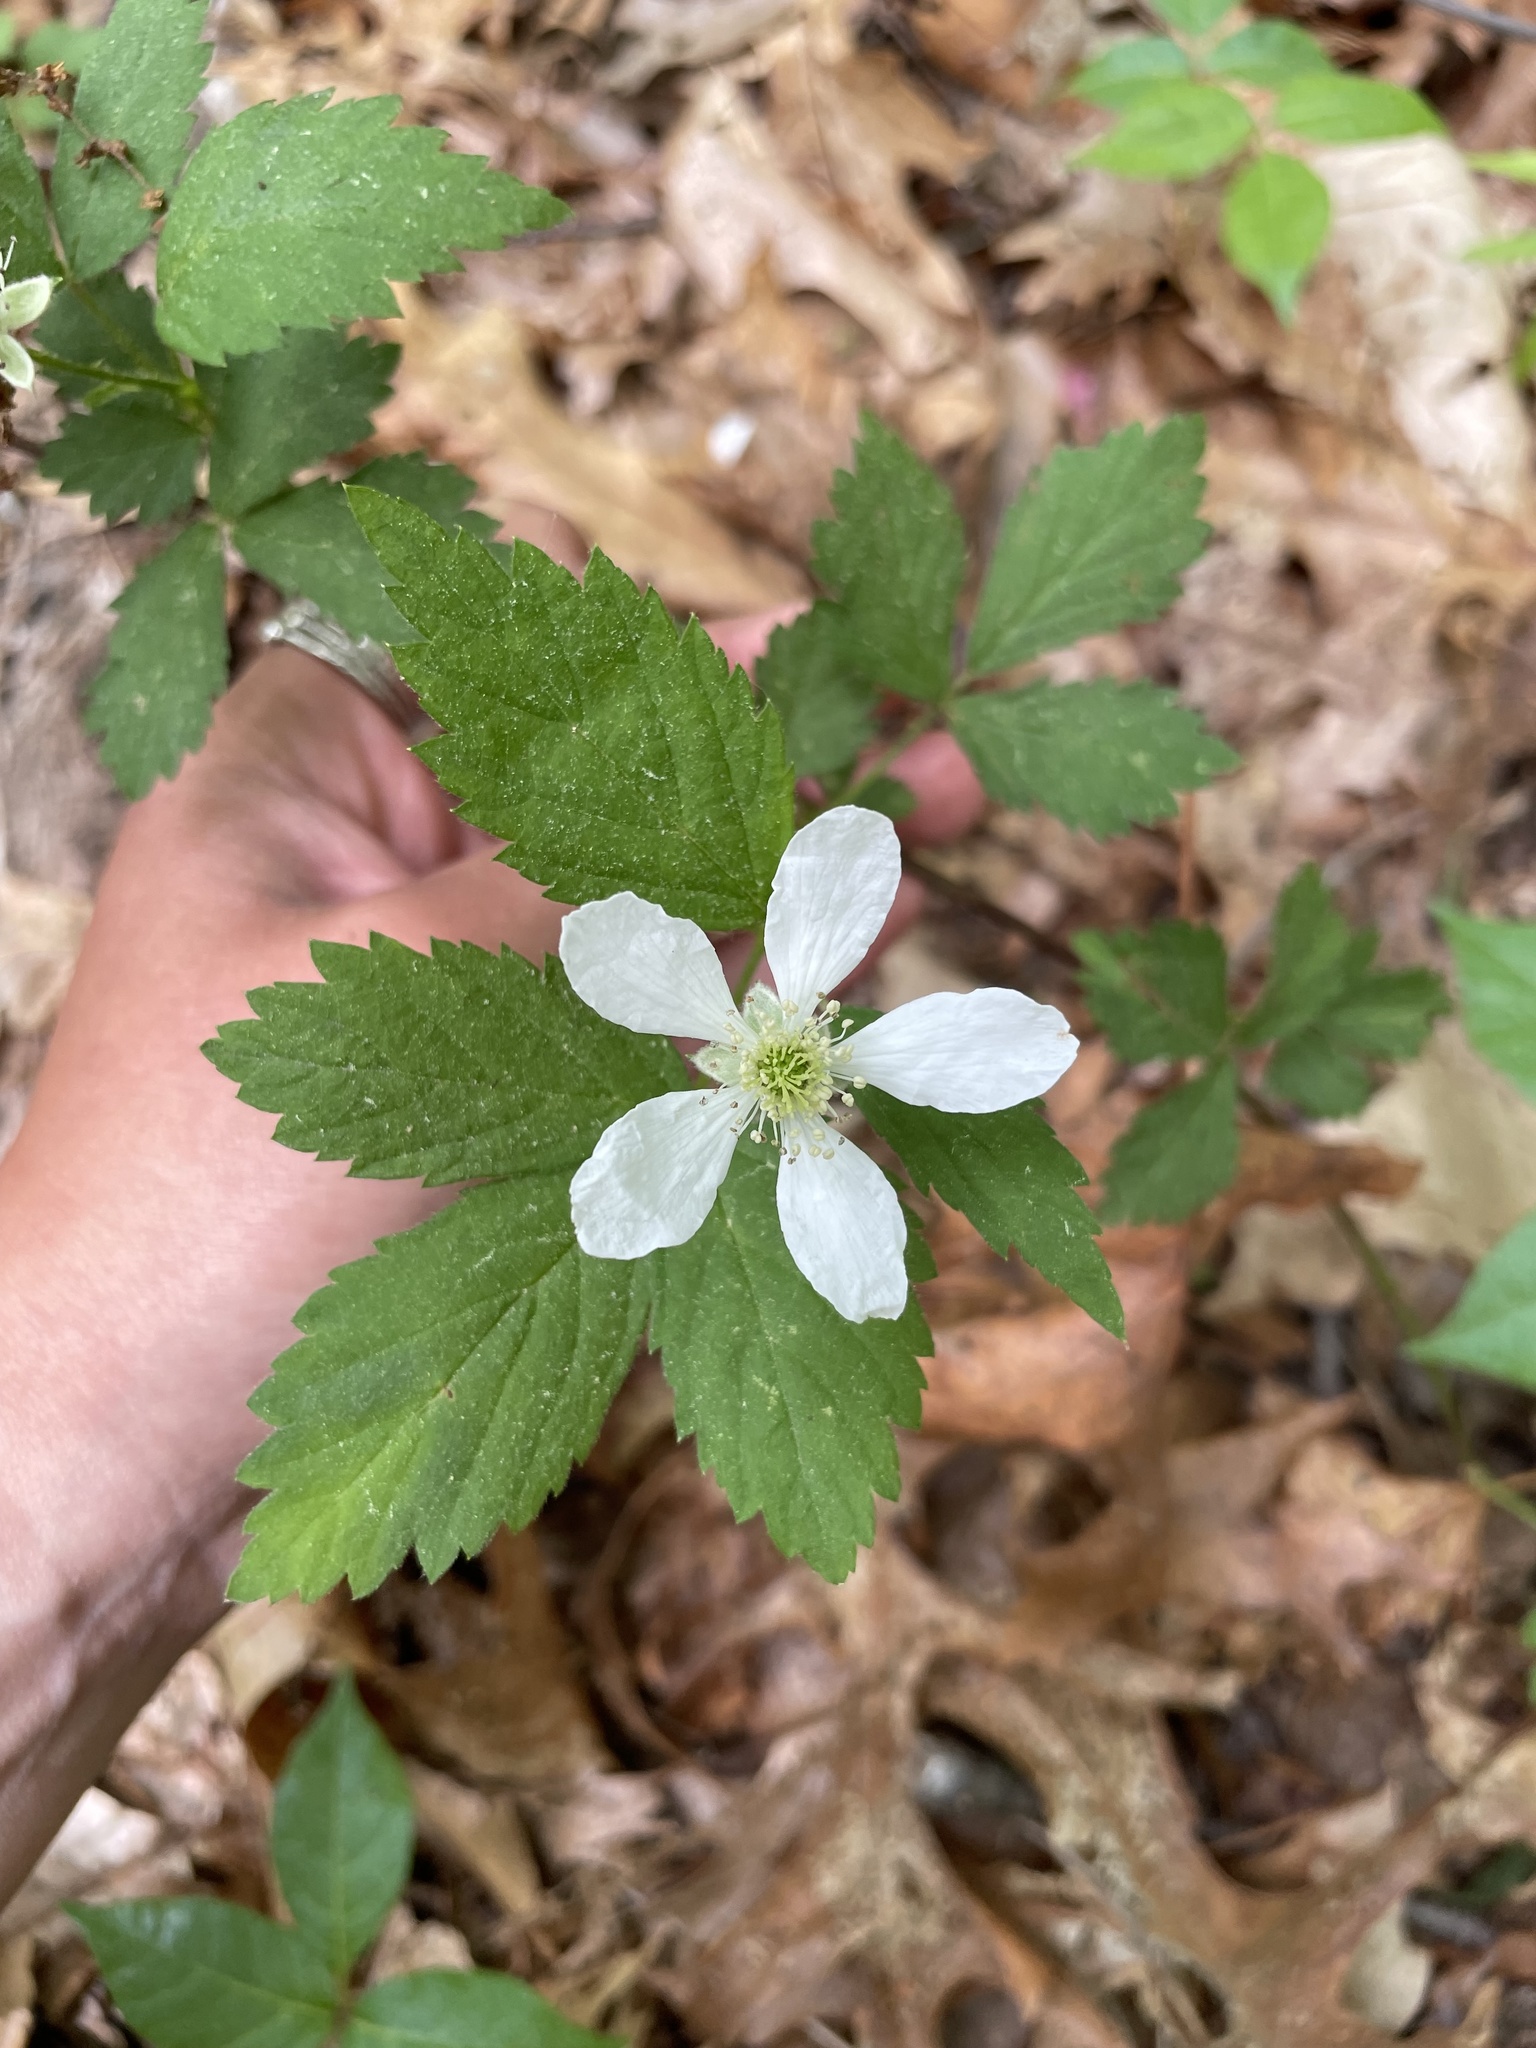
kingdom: Plantae
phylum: Tracheophyta
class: Magnoliopsida
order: Rosales
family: Rosaceae
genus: Rubus
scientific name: Rubus flagellaris
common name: American dewberry
